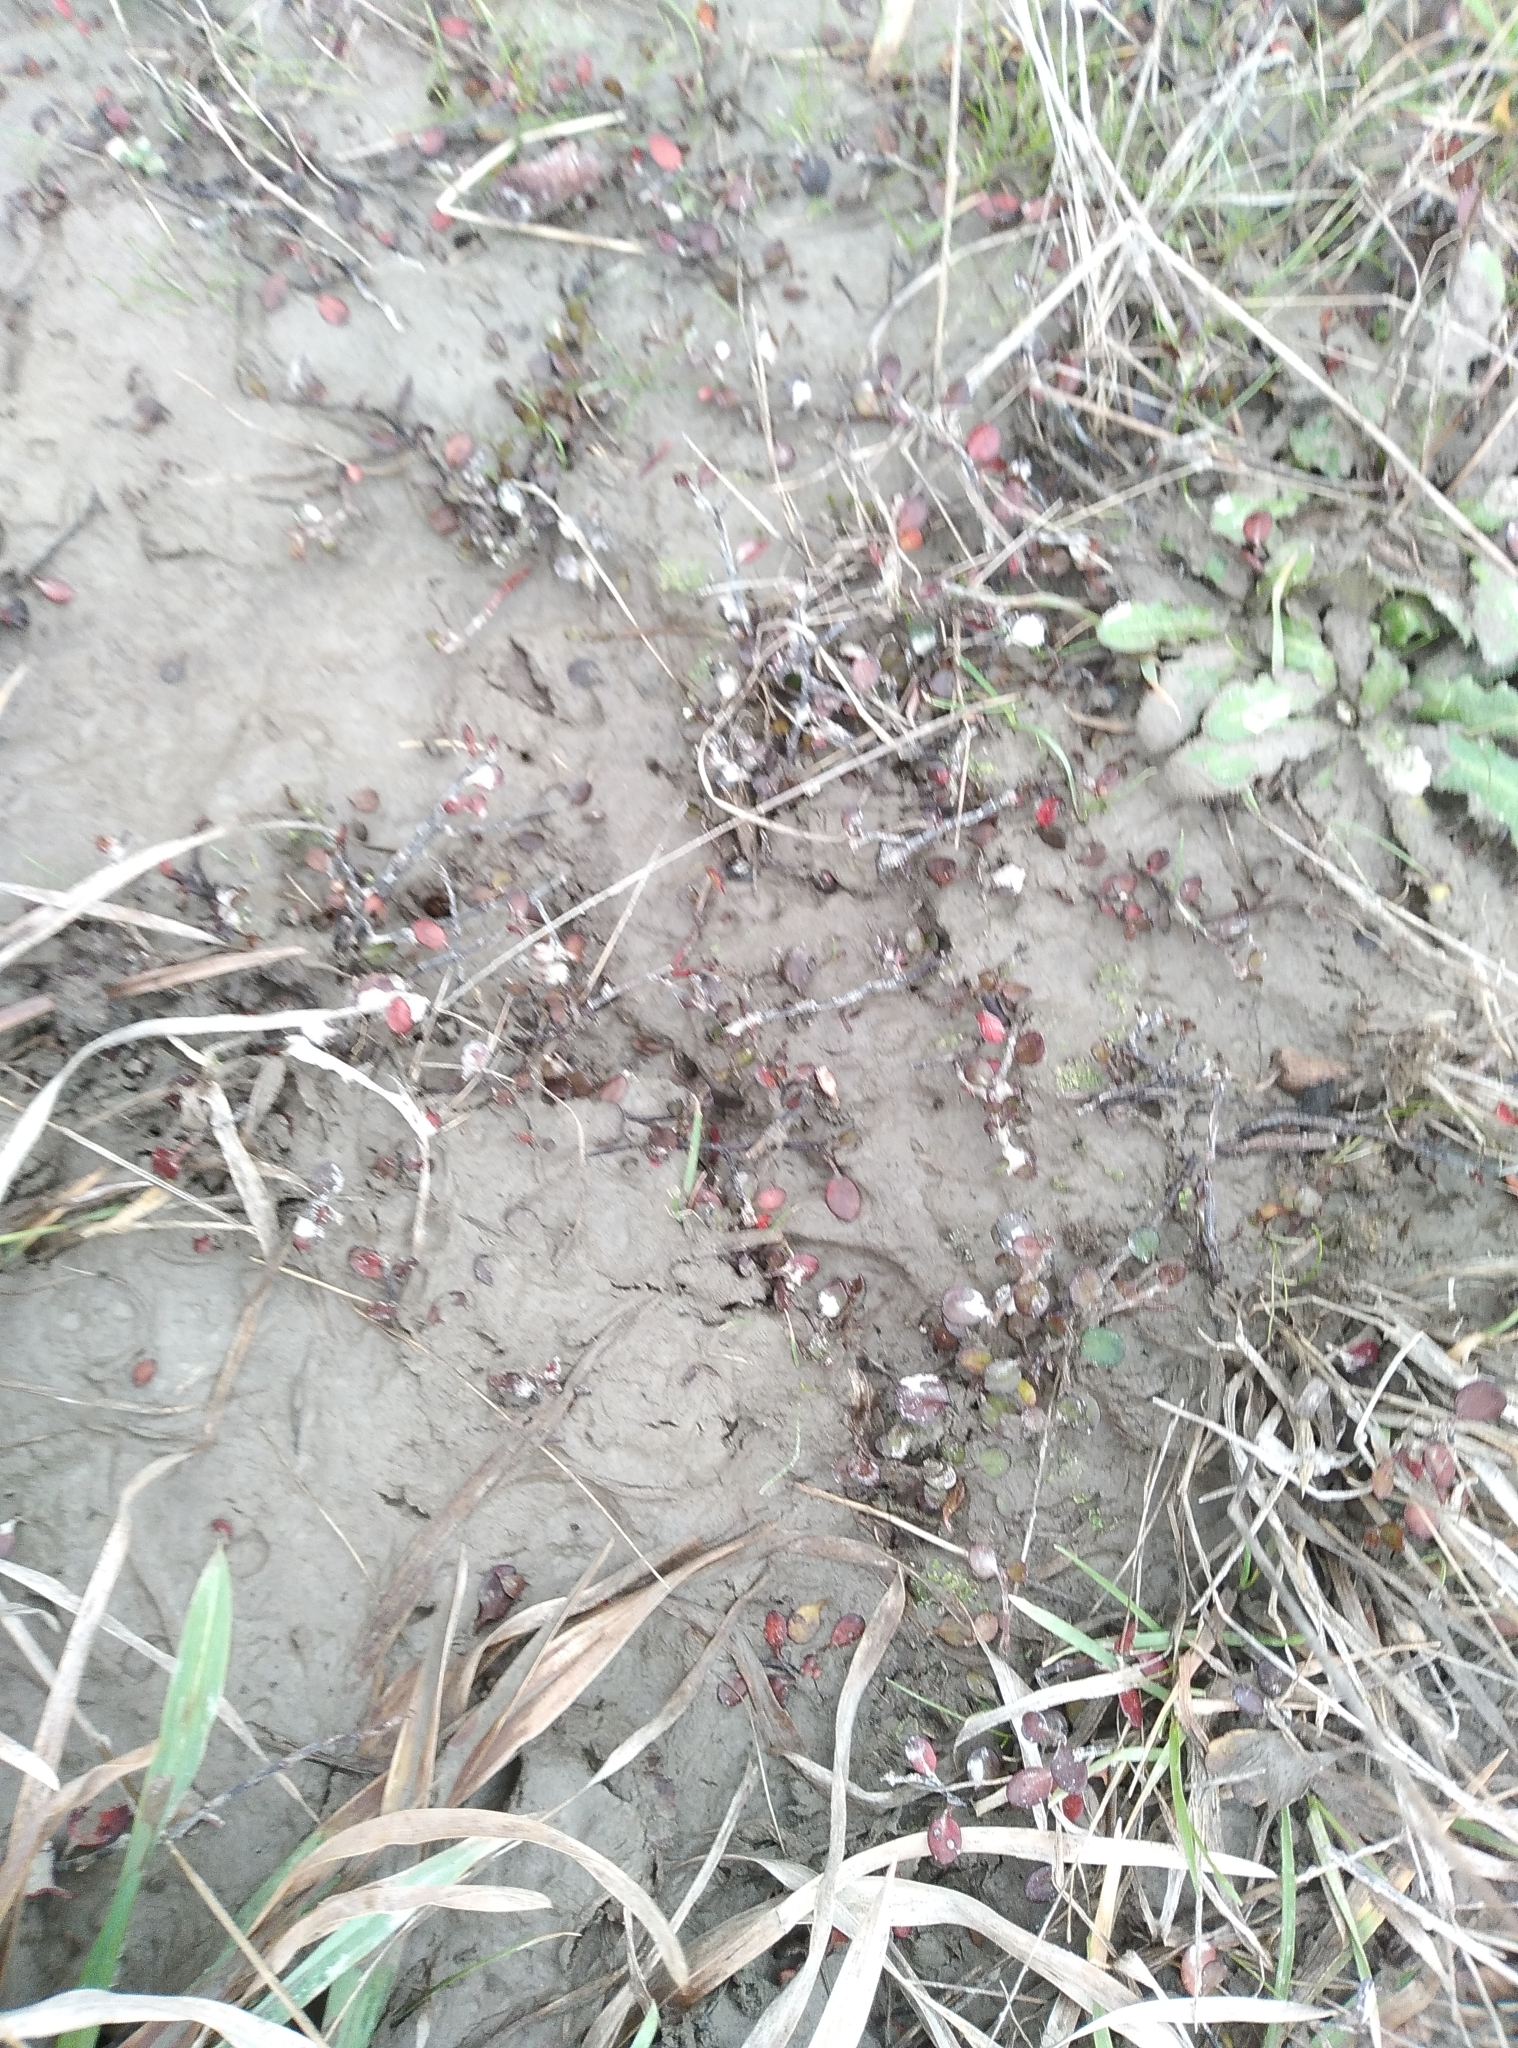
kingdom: Plantae
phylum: Tracheophyta
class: Magnoliopsida
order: Caryophyllales
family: Polygonaceae
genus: Muehlenbeckia
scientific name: Muehlenbeckia axillaris
